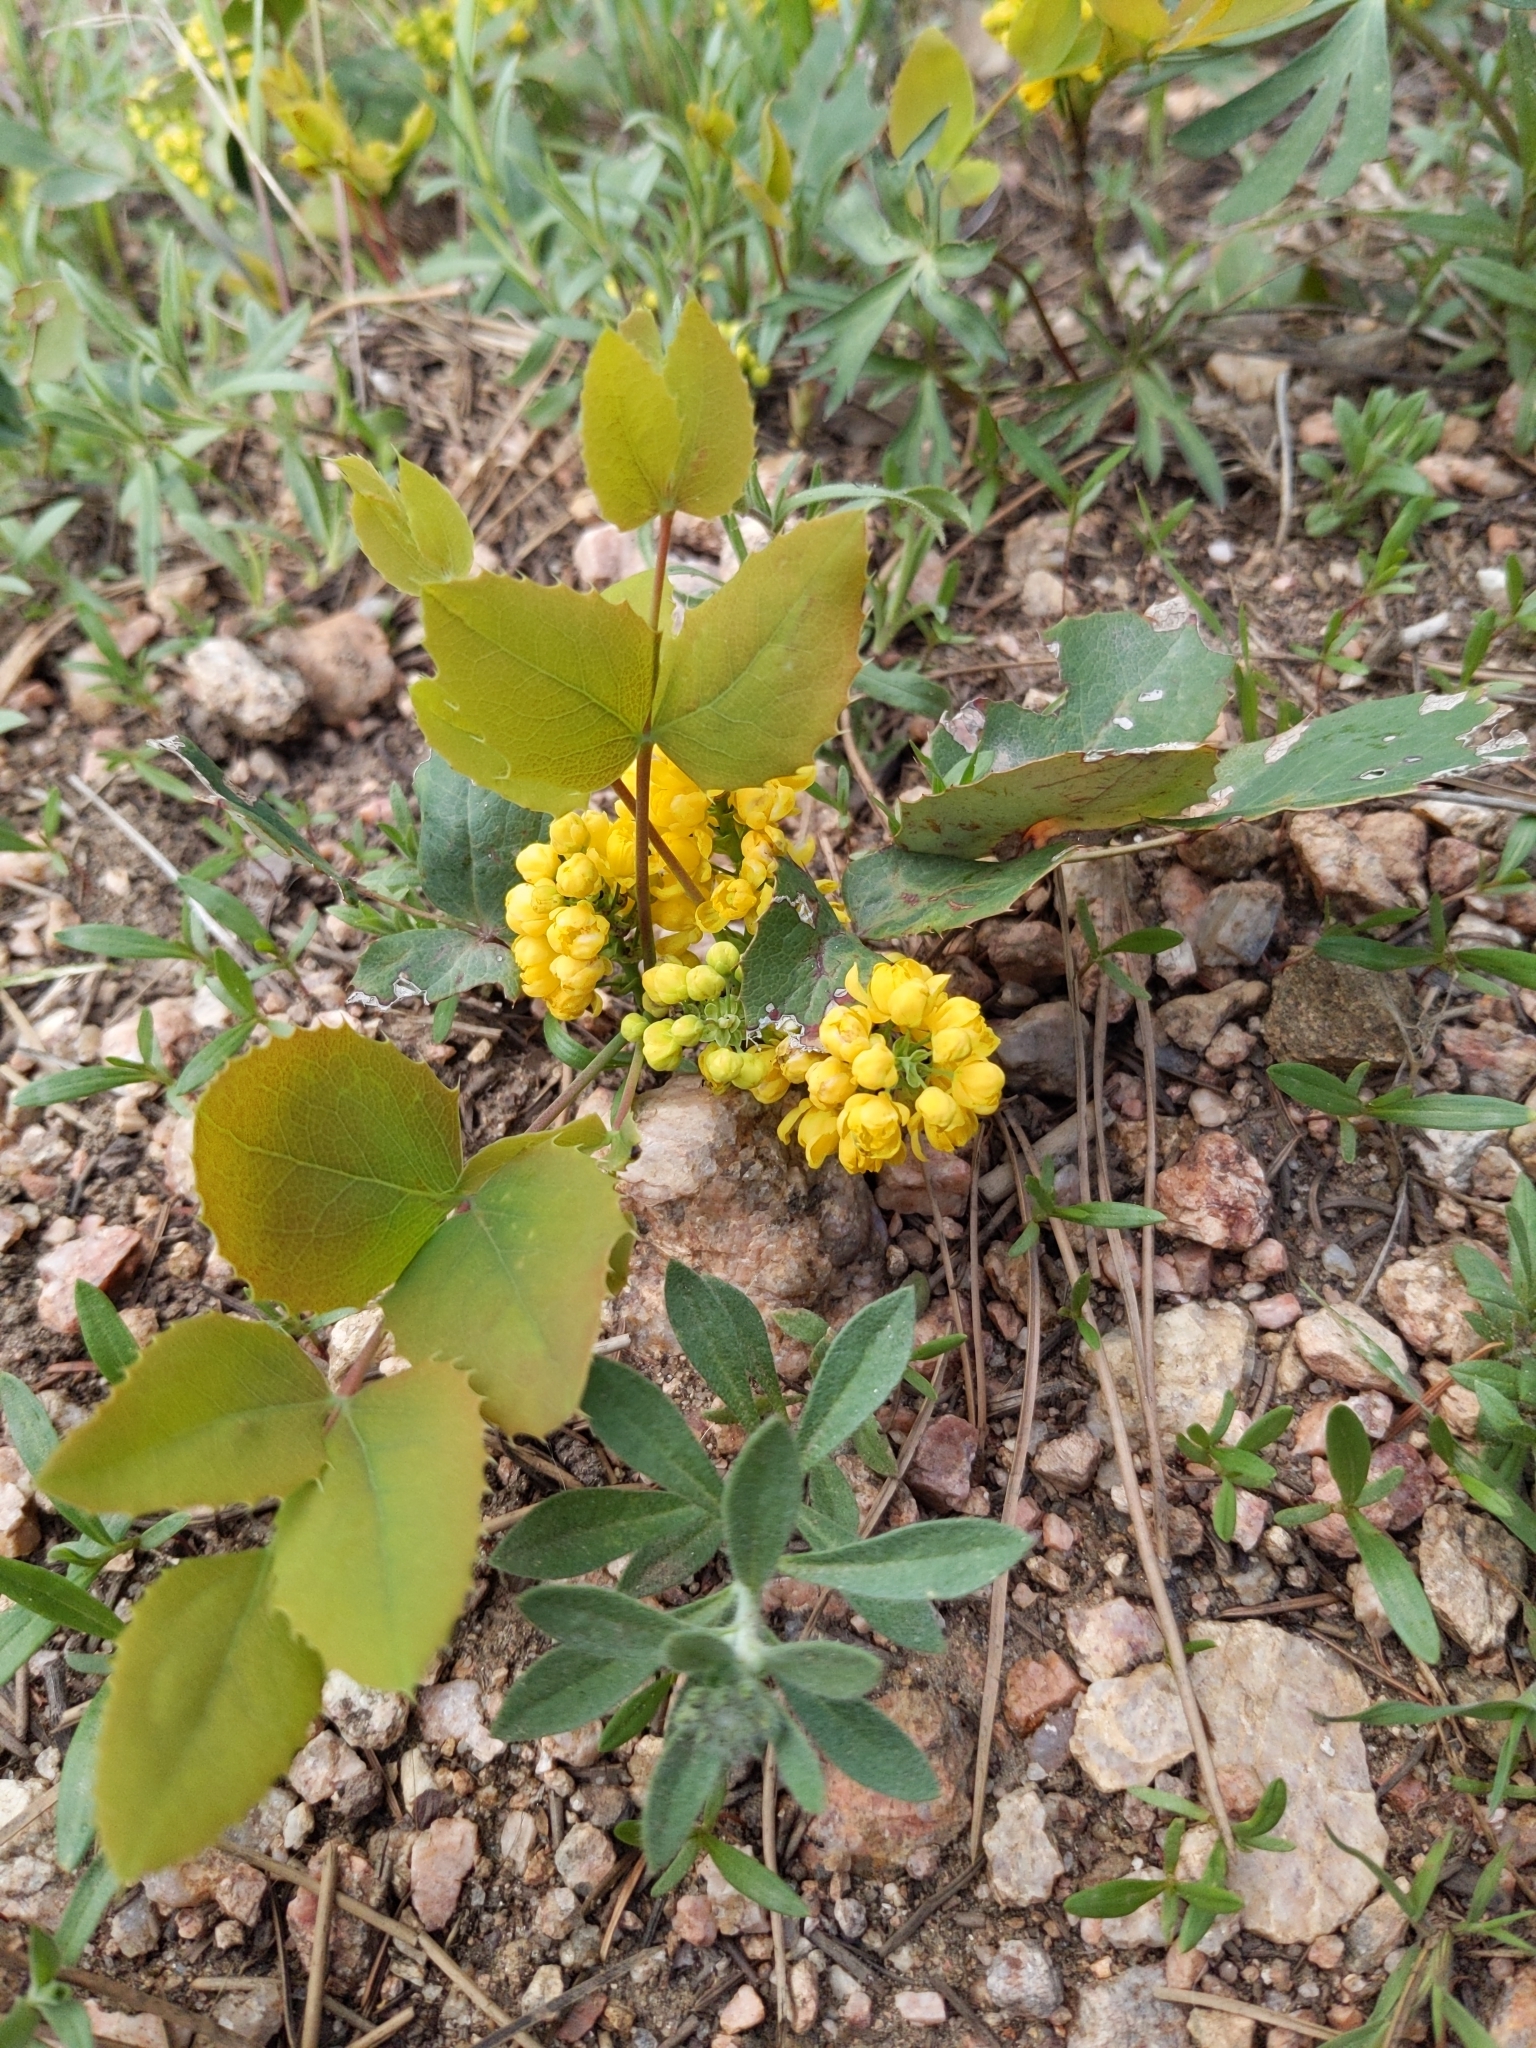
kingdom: Plantae
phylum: Tracheophyta
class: Magnoliopsida
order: Ranunculales
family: Berberidaceae
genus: Mahonia
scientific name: Mahonia repens
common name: Creeping oregon-grape
